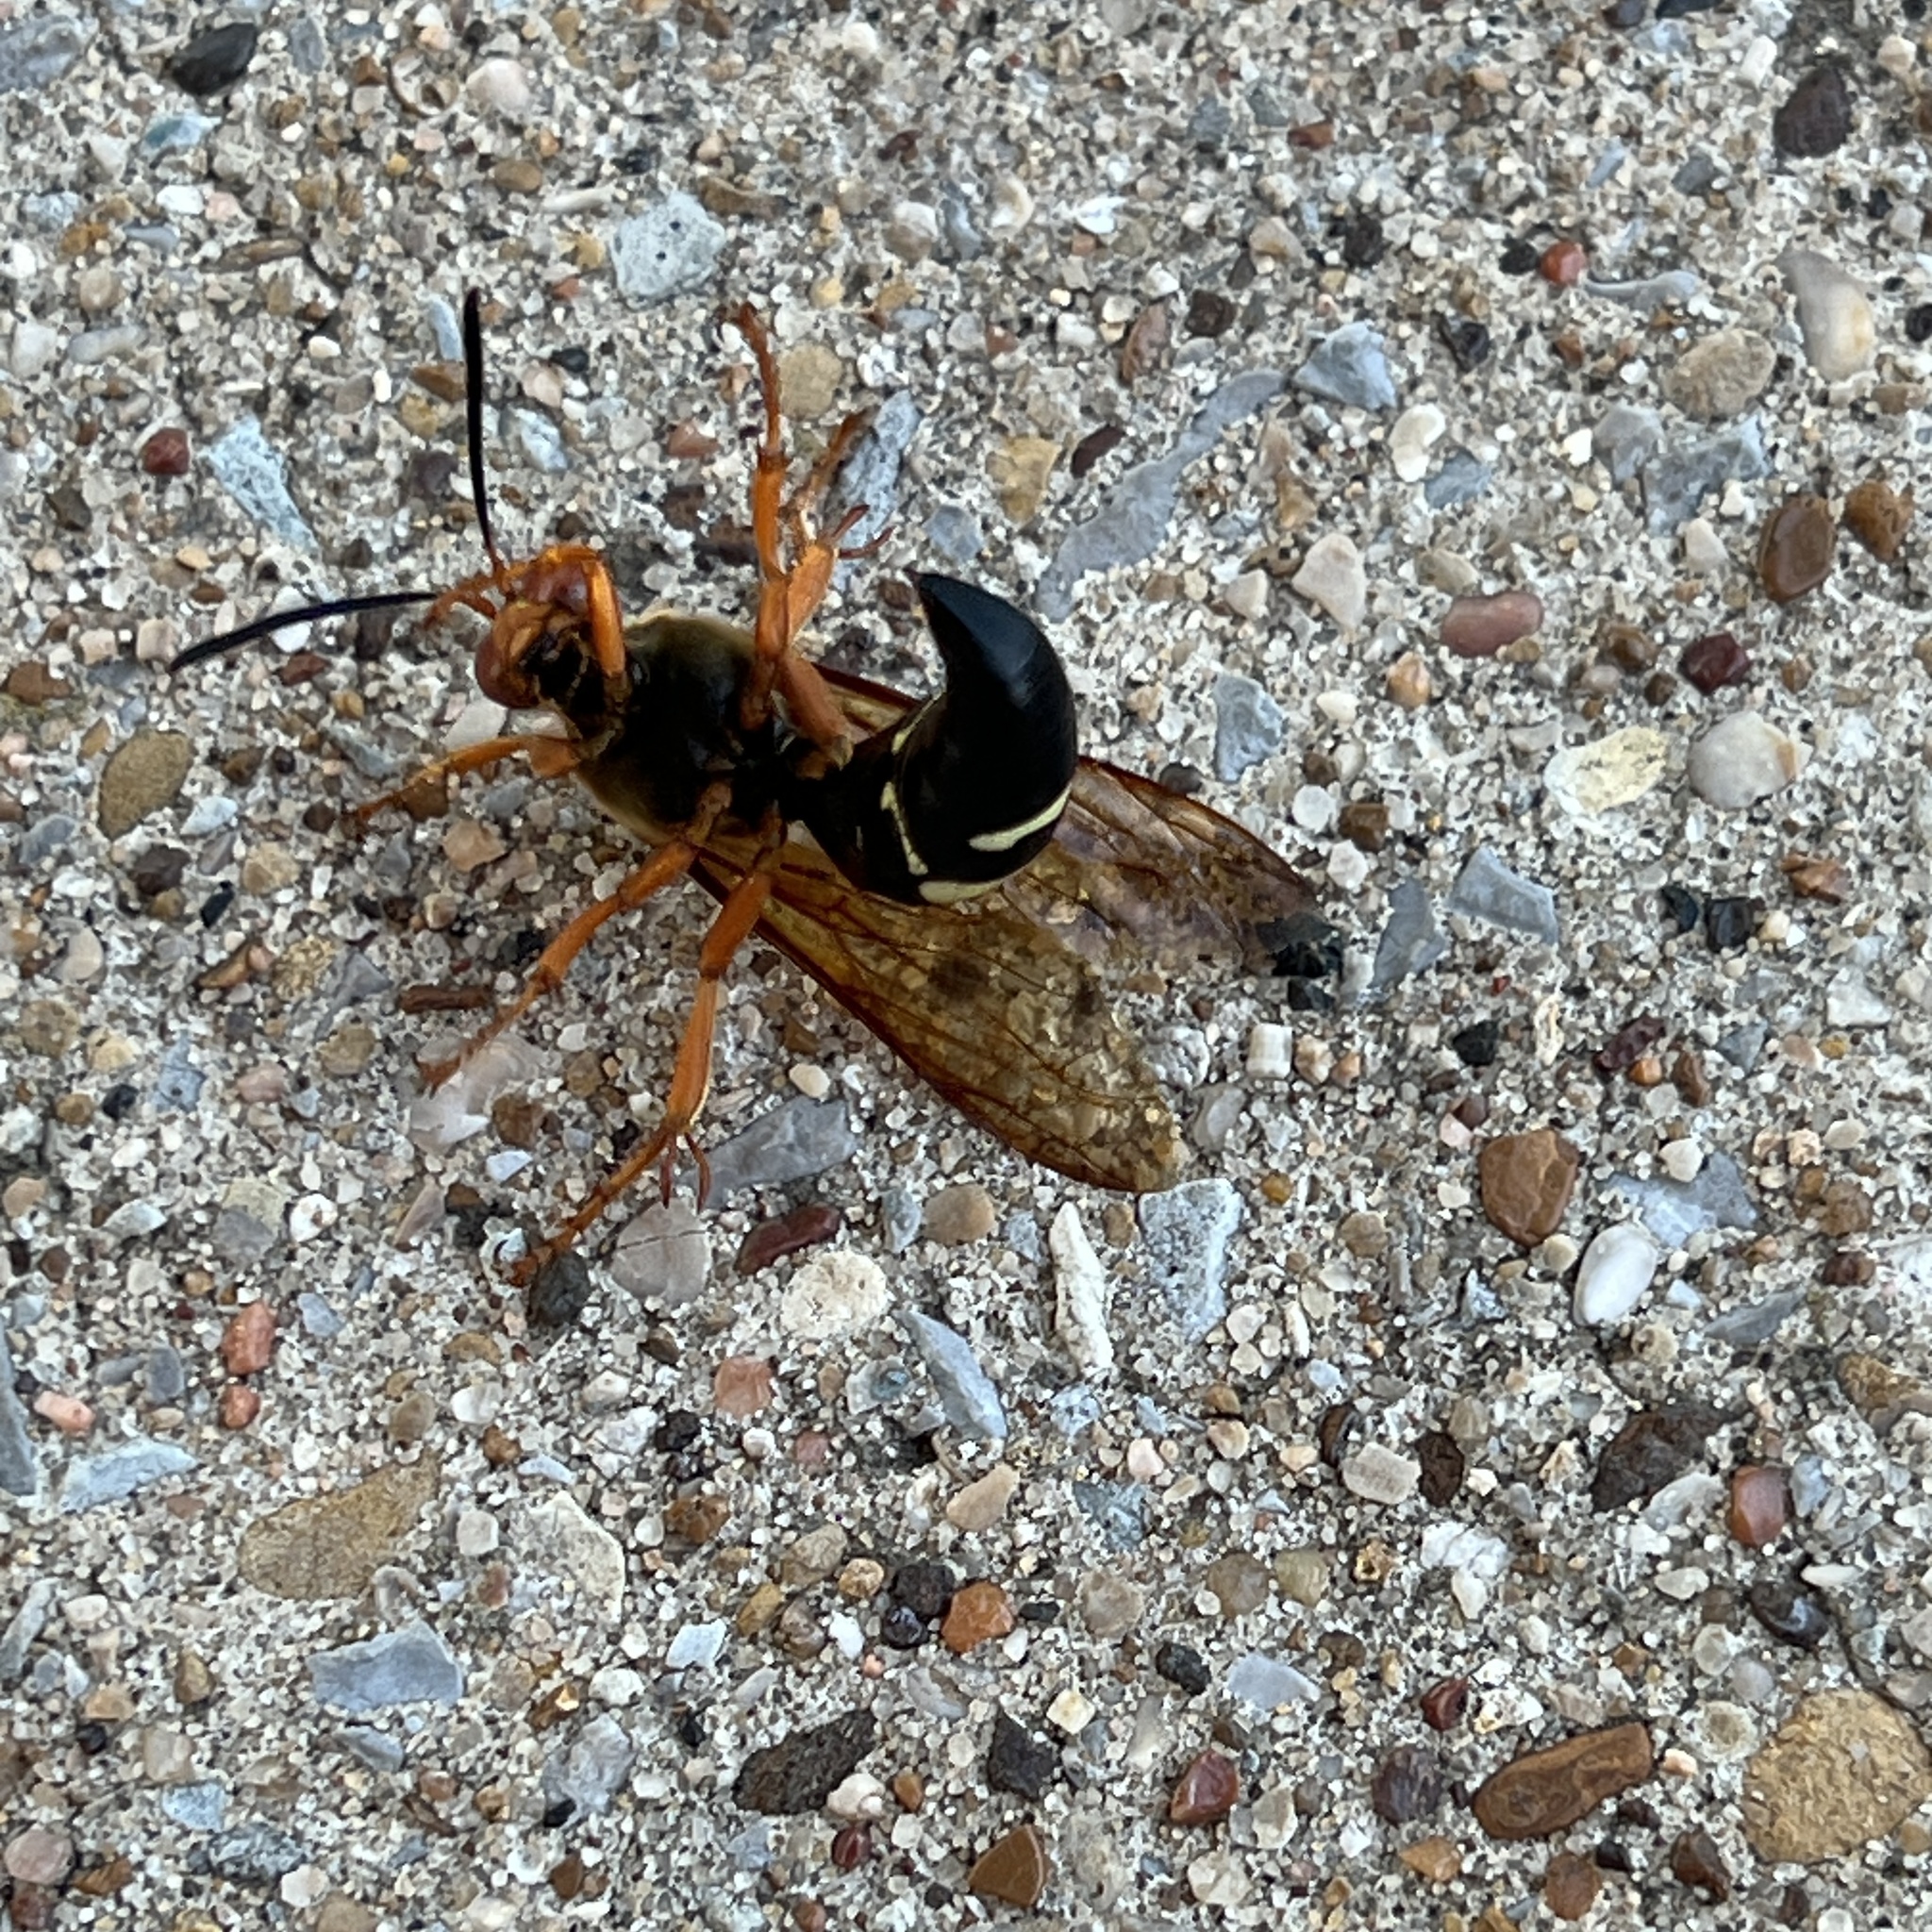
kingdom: Animalia
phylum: Arthropoda
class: Insecta
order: Hymenoptera
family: Crabronidae
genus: Sphecius
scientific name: Sphecius speciosus
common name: Cicada killer
